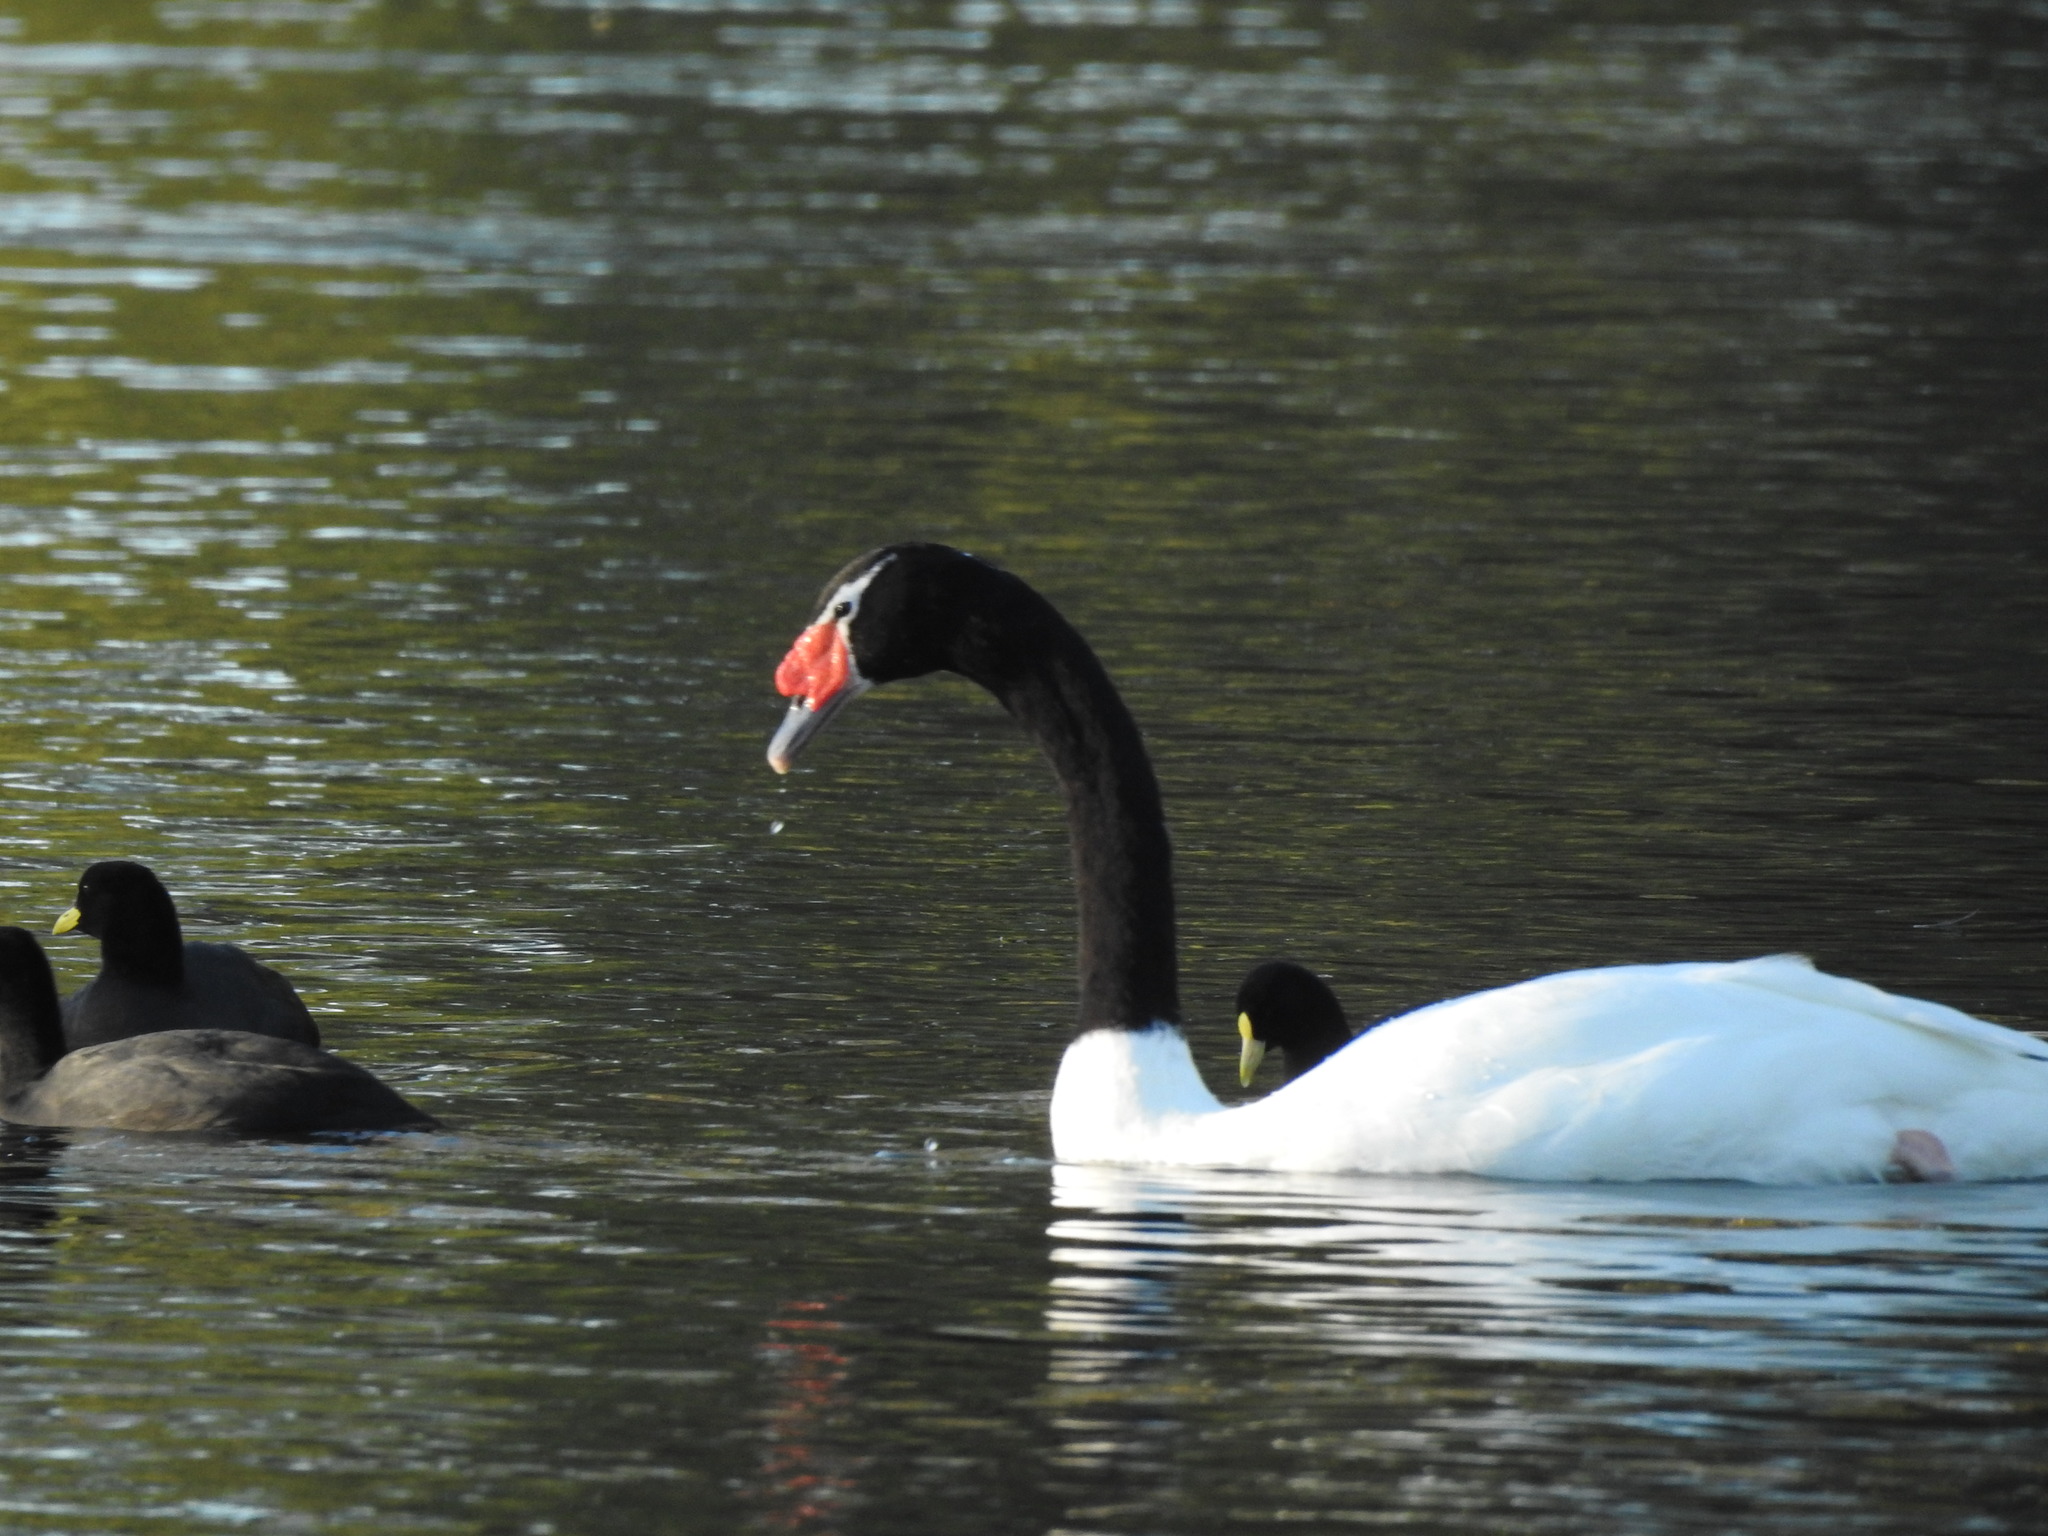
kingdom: Animalia
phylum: Chordata
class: Aves
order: Anseriformes
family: Anatidae
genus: Cygnus
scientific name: Cygnus melancoryphus
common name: Black-necked swan
